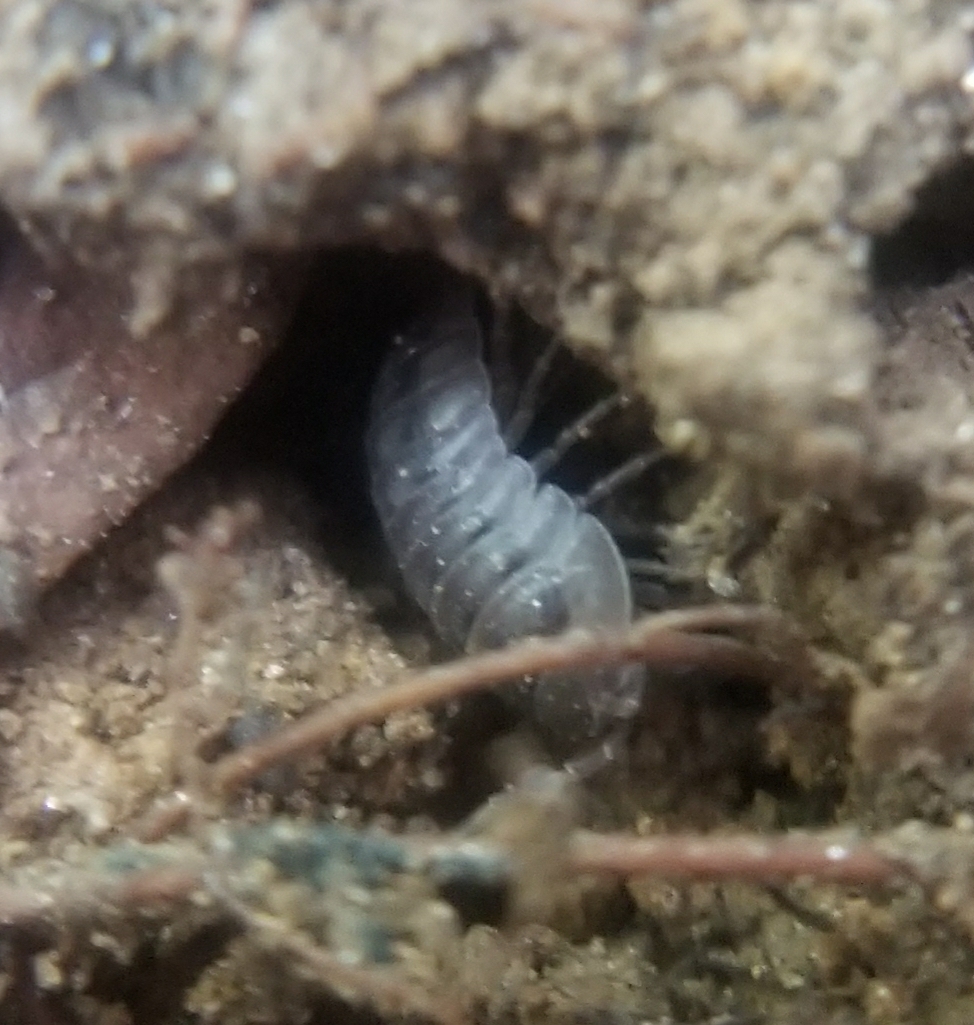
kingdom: Animalia
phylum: Arthropoda
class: Malacostraca
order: Isopoda
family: Armadillidiidae
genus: Armadillidium
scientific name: Armadillidium nasatum
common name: Isopod
